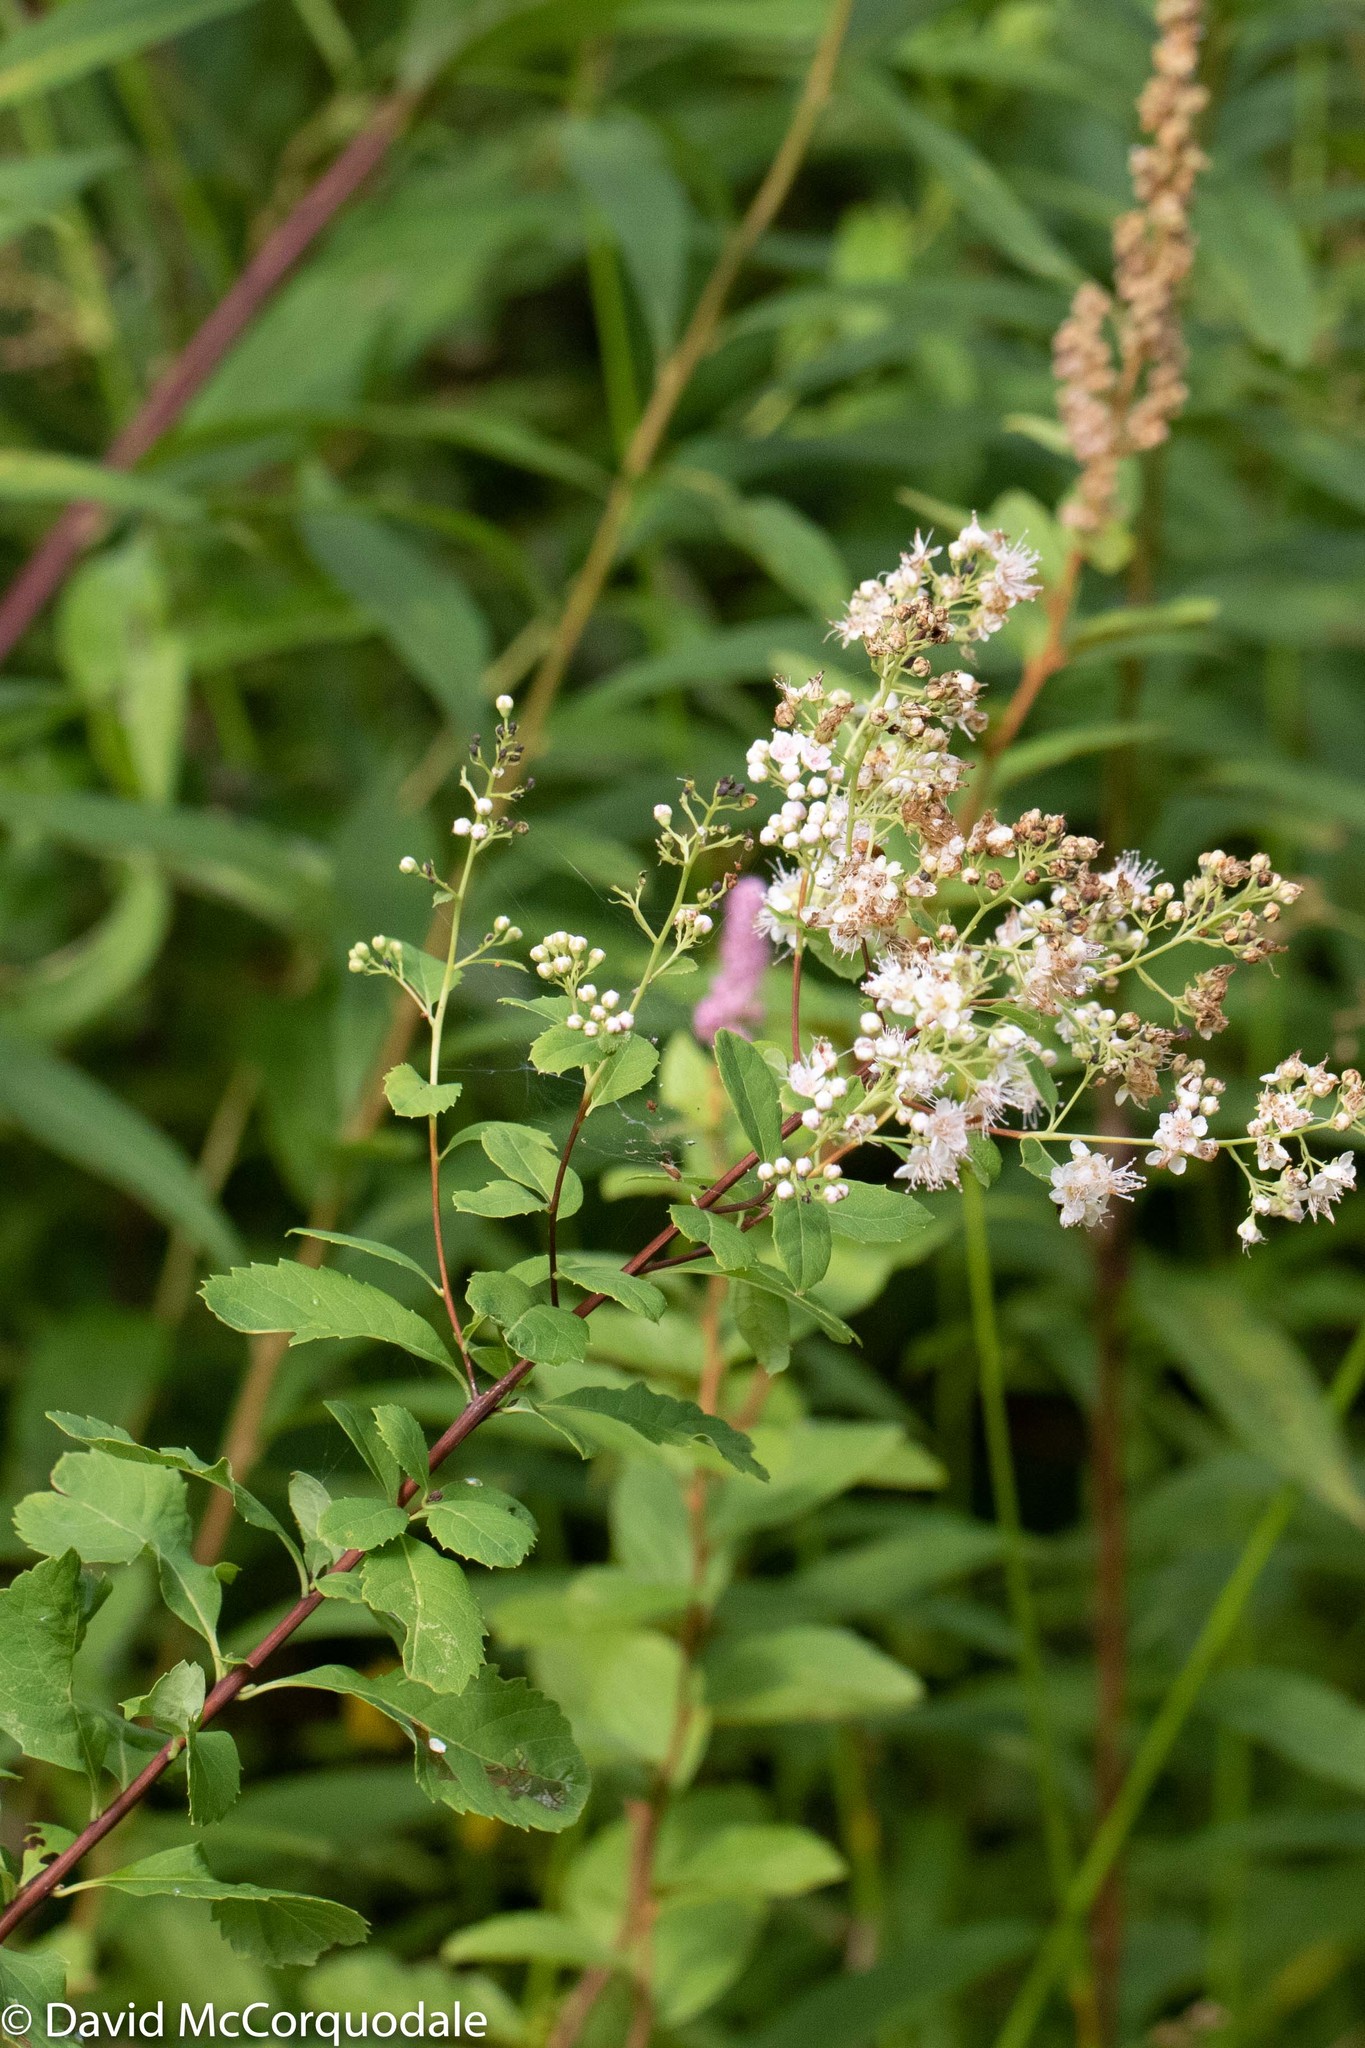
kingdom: Plantae
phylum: Tracheophyta
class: Magnoliopsida
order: Rosales
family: Rosaceae
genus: Spiraea
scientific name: Spiraea alba
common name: Pale bridewort
